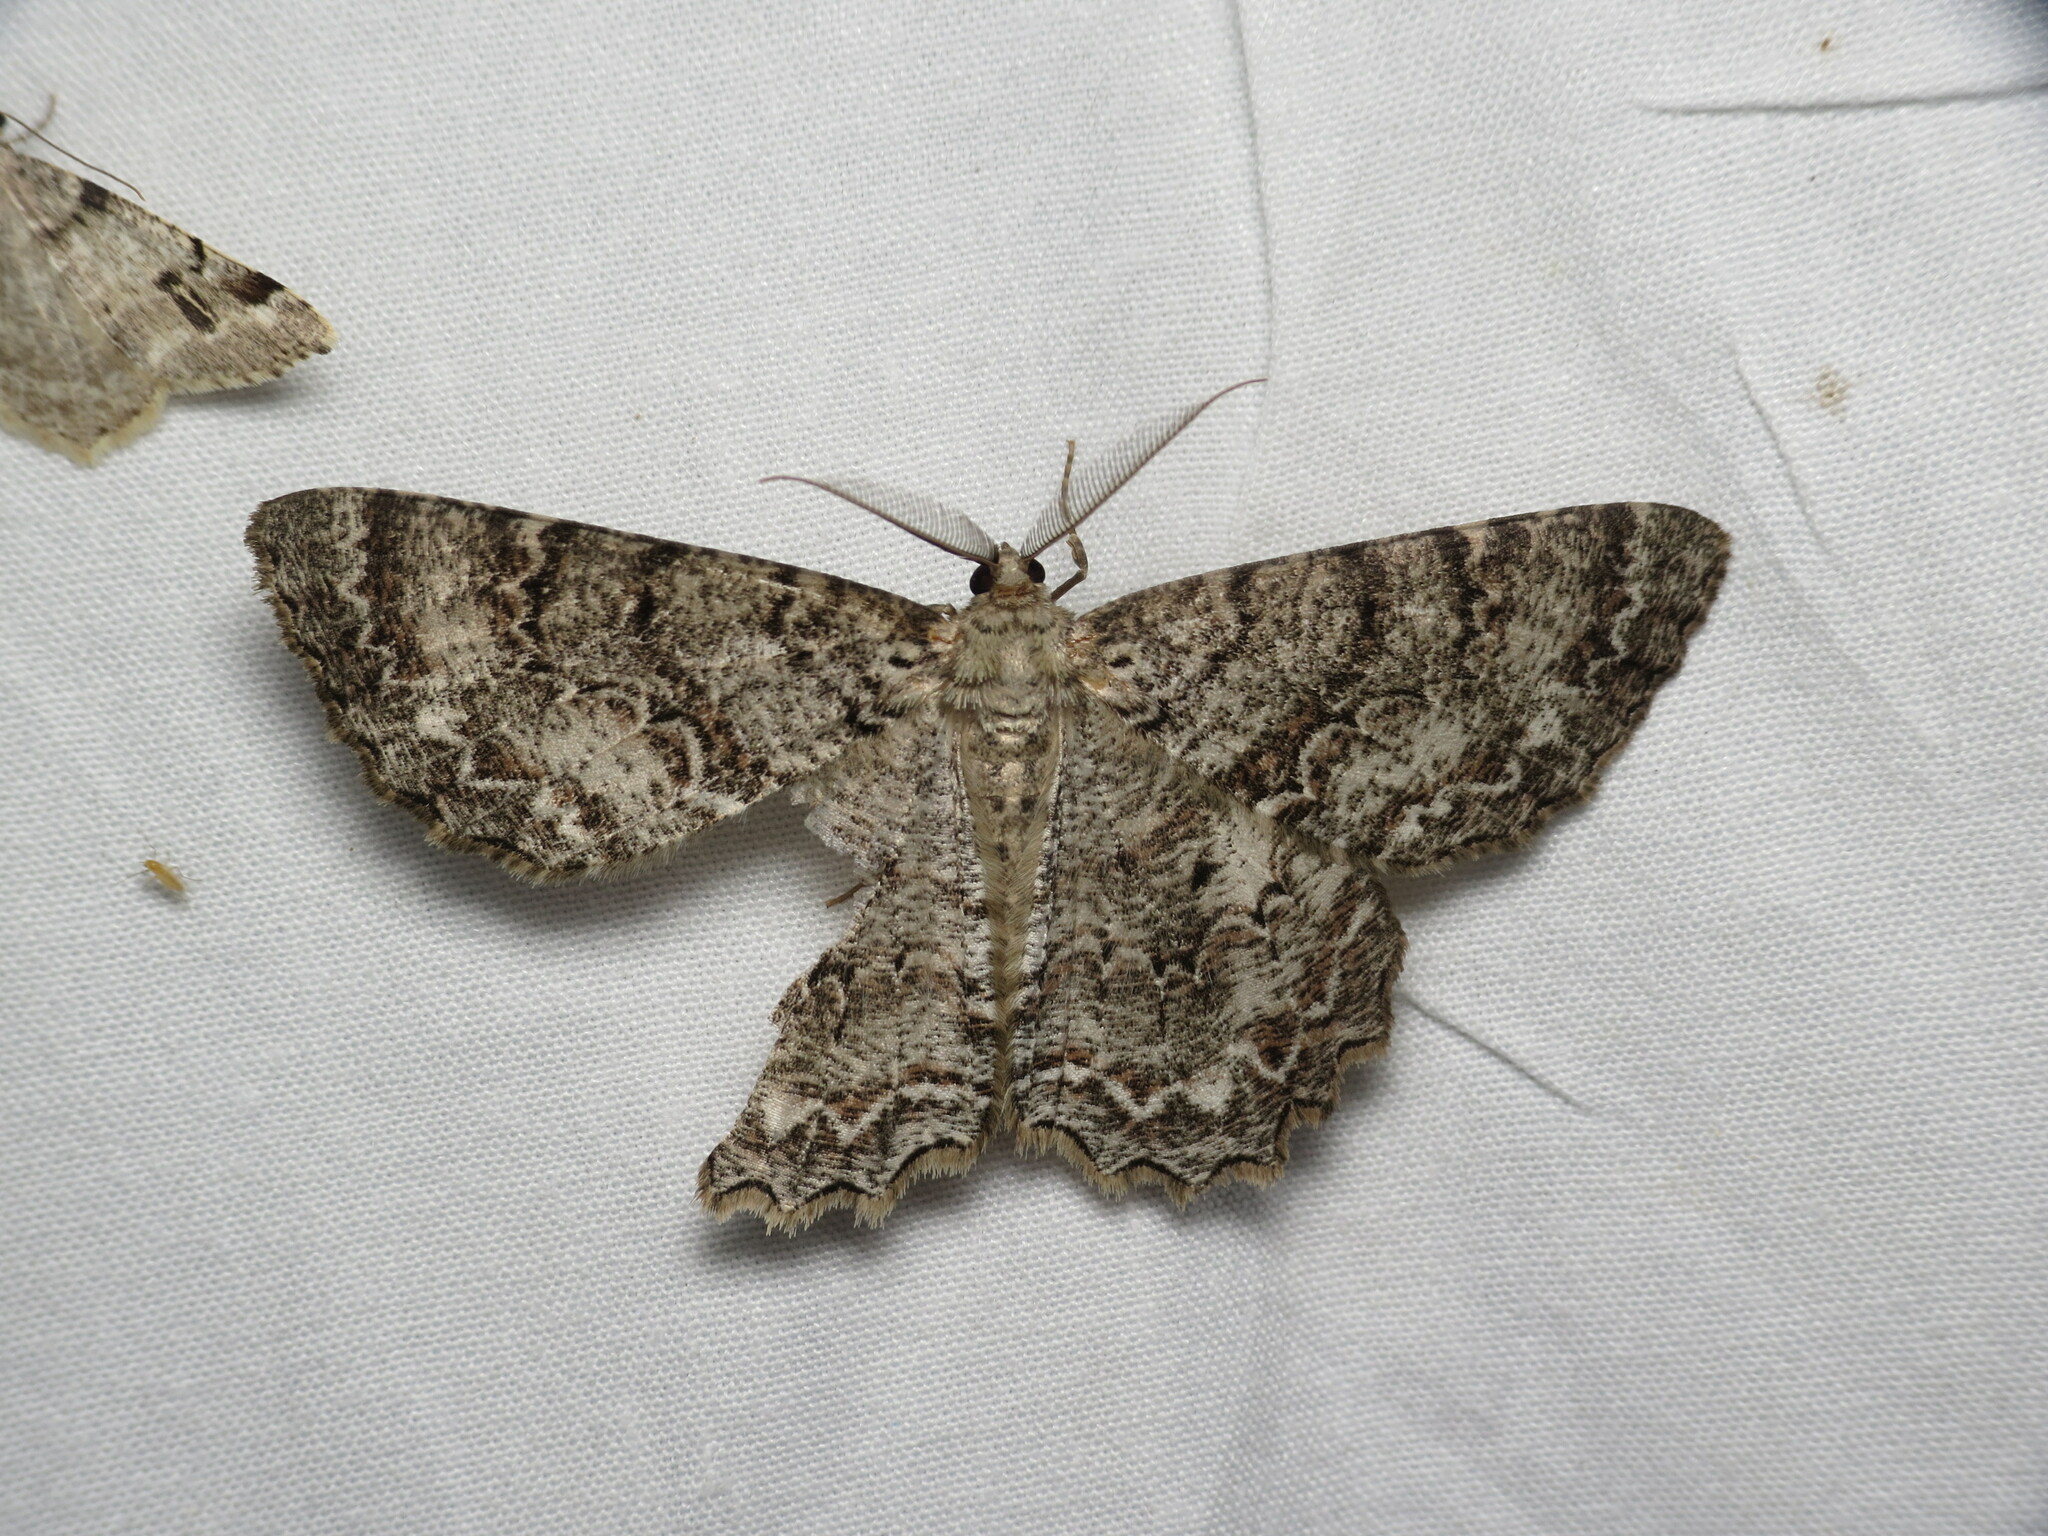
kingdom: Animalia
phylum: Arthropoda
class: Insecta
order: Lepidoptera
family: Geometridae
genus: Epimecis
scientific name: Epimecis hortaria
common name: Tulip-tree beauty
